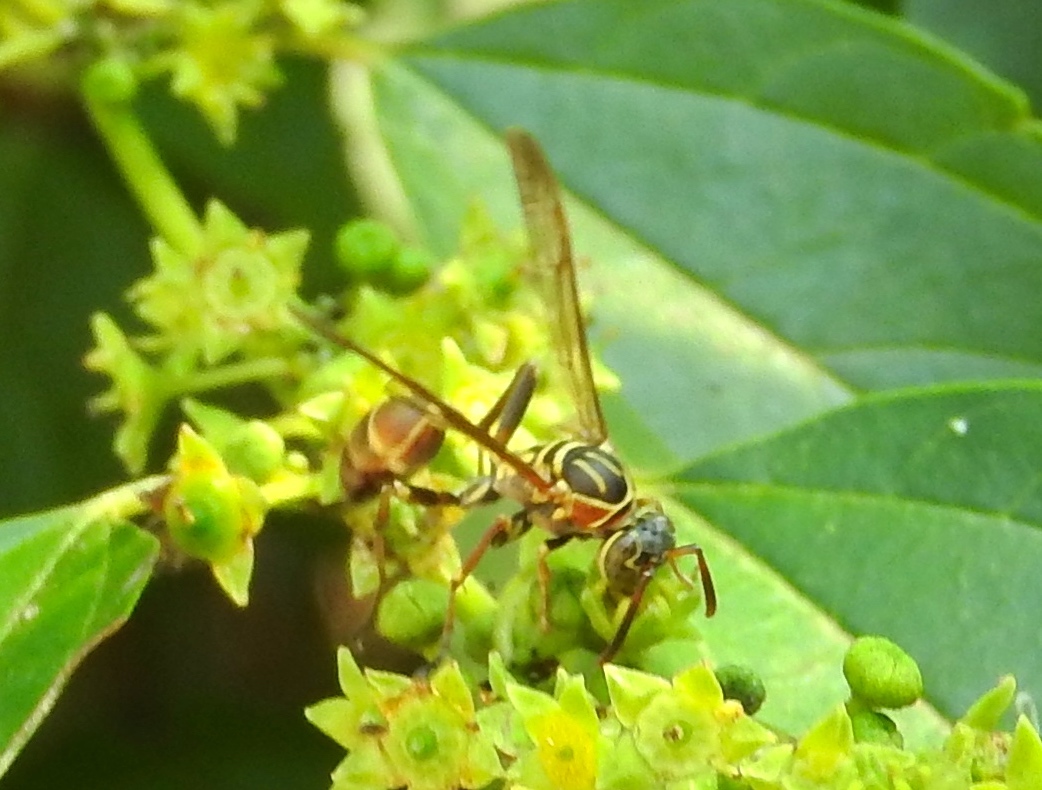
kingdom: Animalia
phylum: Arthropoda
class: Insecta
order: Hymenoptera
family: Vespidae
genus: Mischocyttarus
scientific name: Mischocyttarus mexicanus
